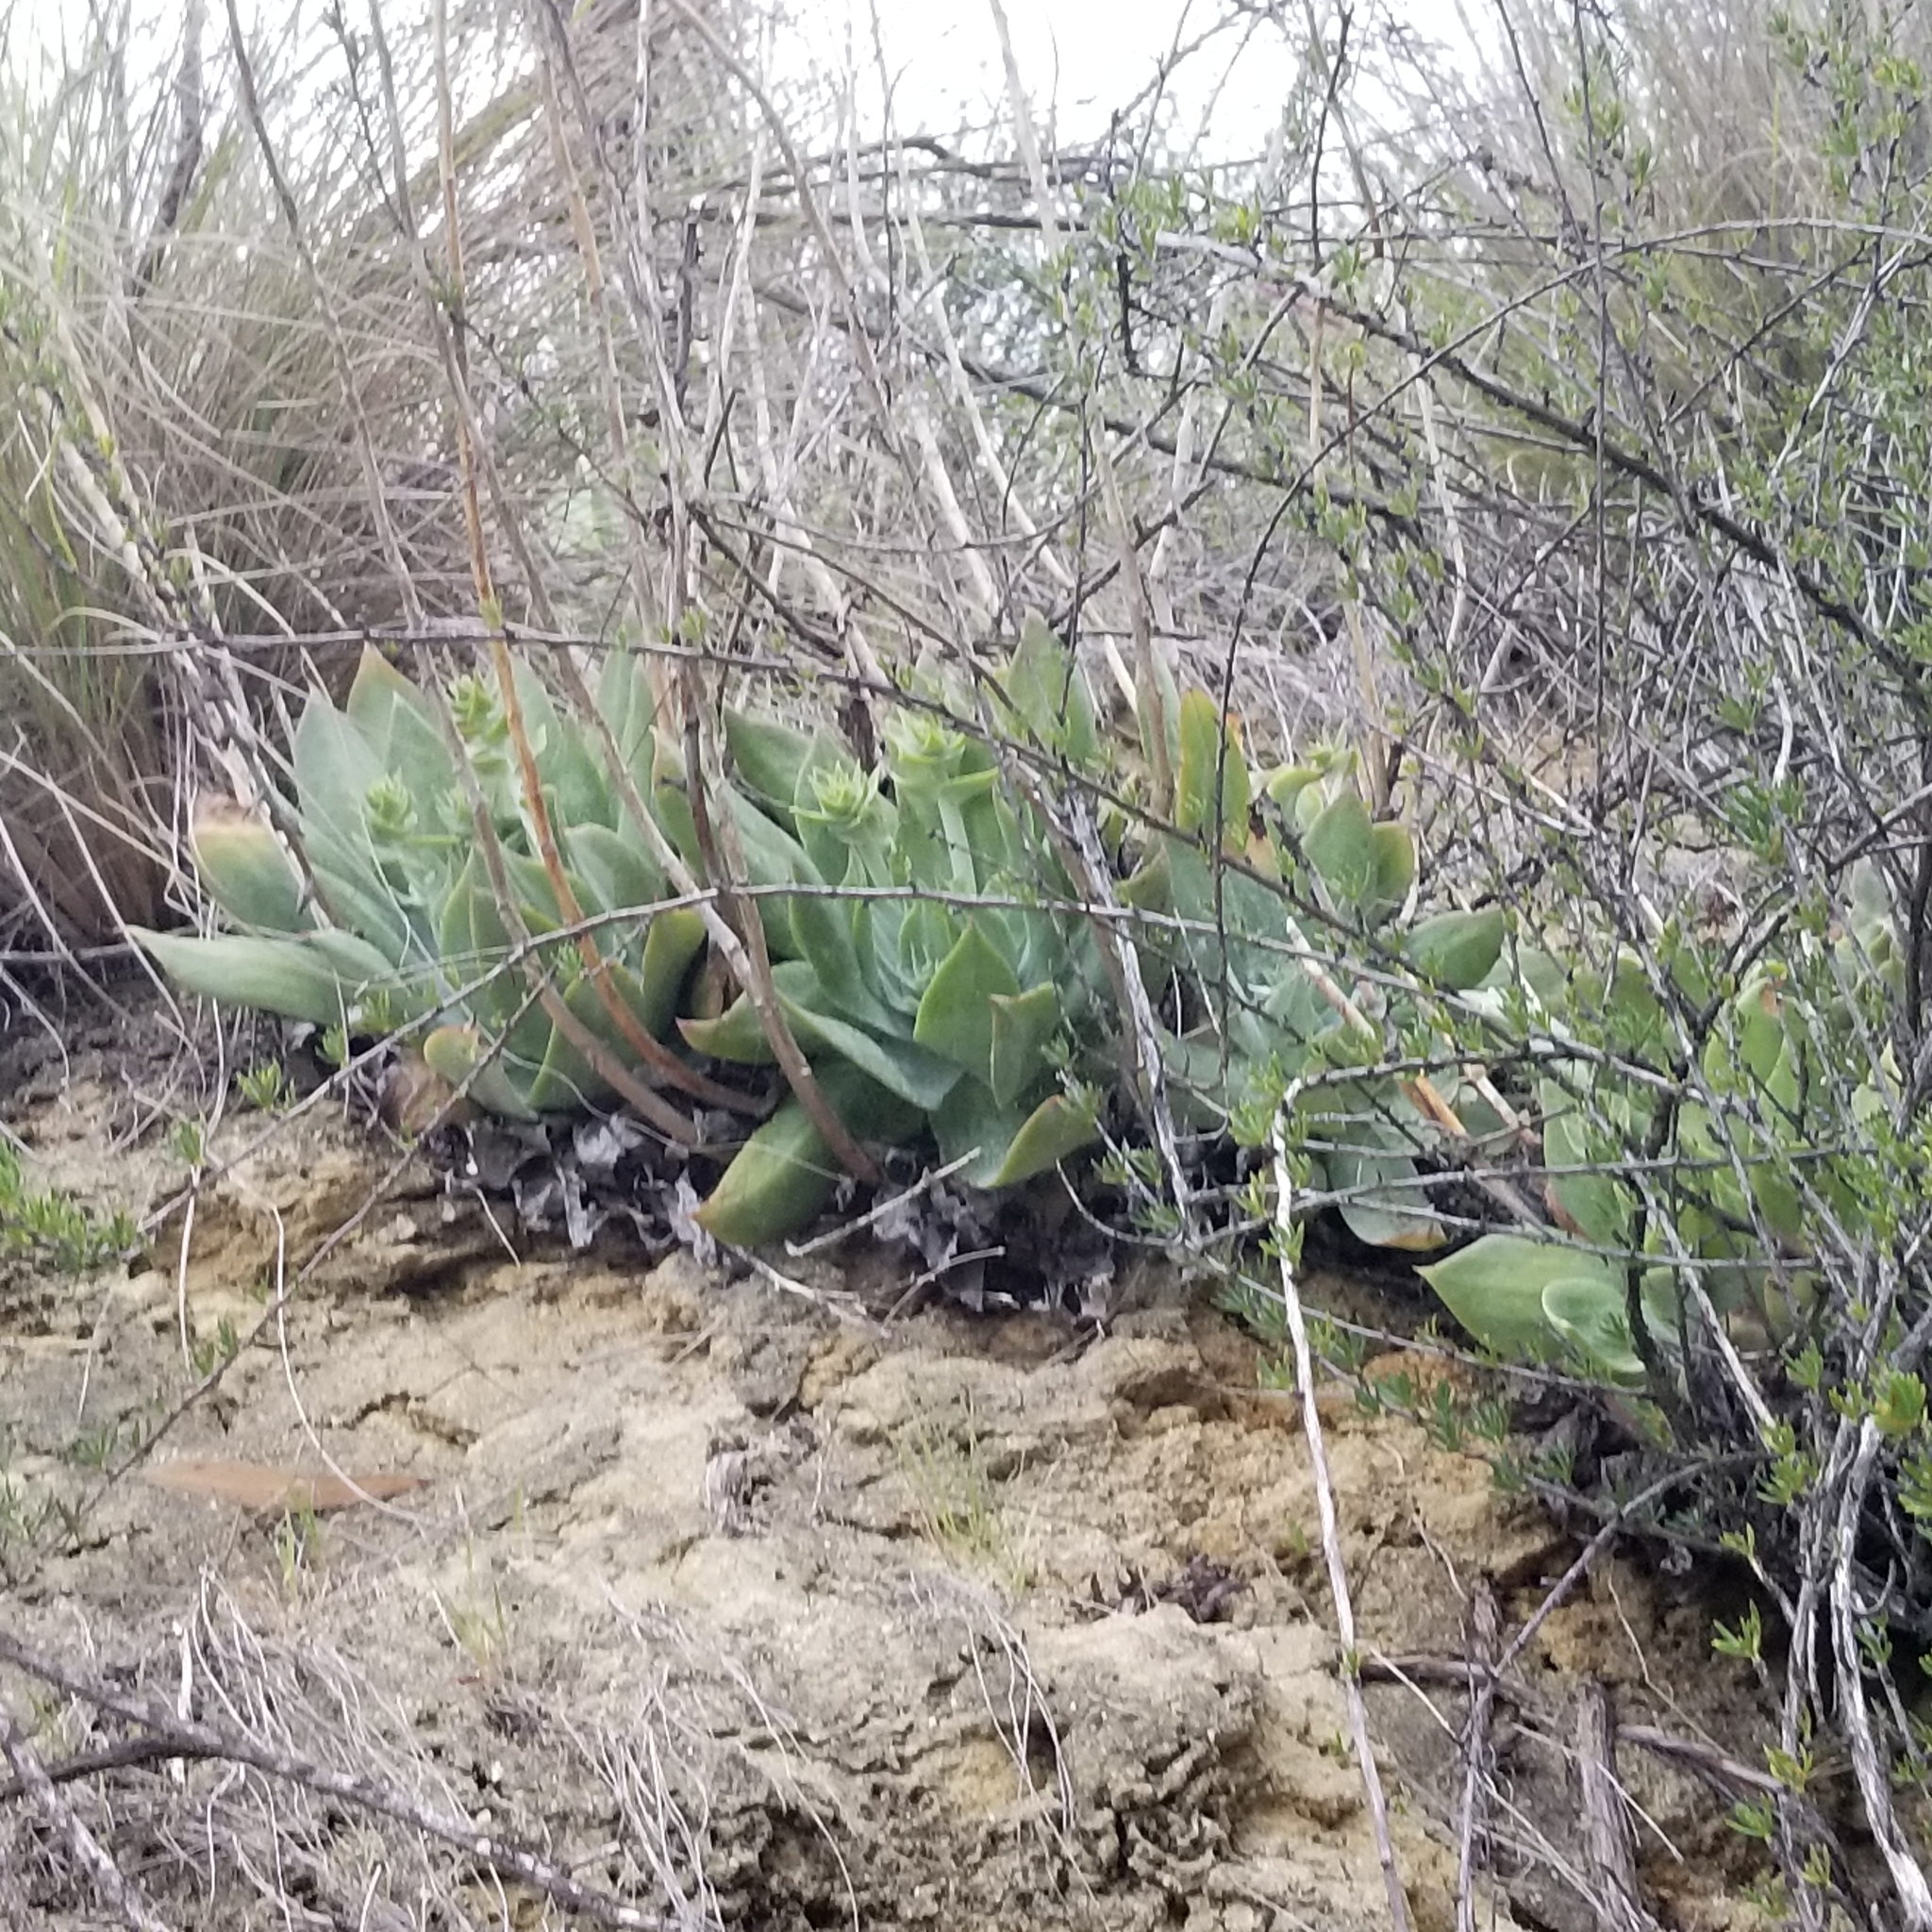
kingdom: Plantae
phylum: Tracheophyta
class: Magnoliopsida
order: Saxifragales
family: Crassulaceae
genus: Dudleya
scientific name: Dudleya pulverulenta
